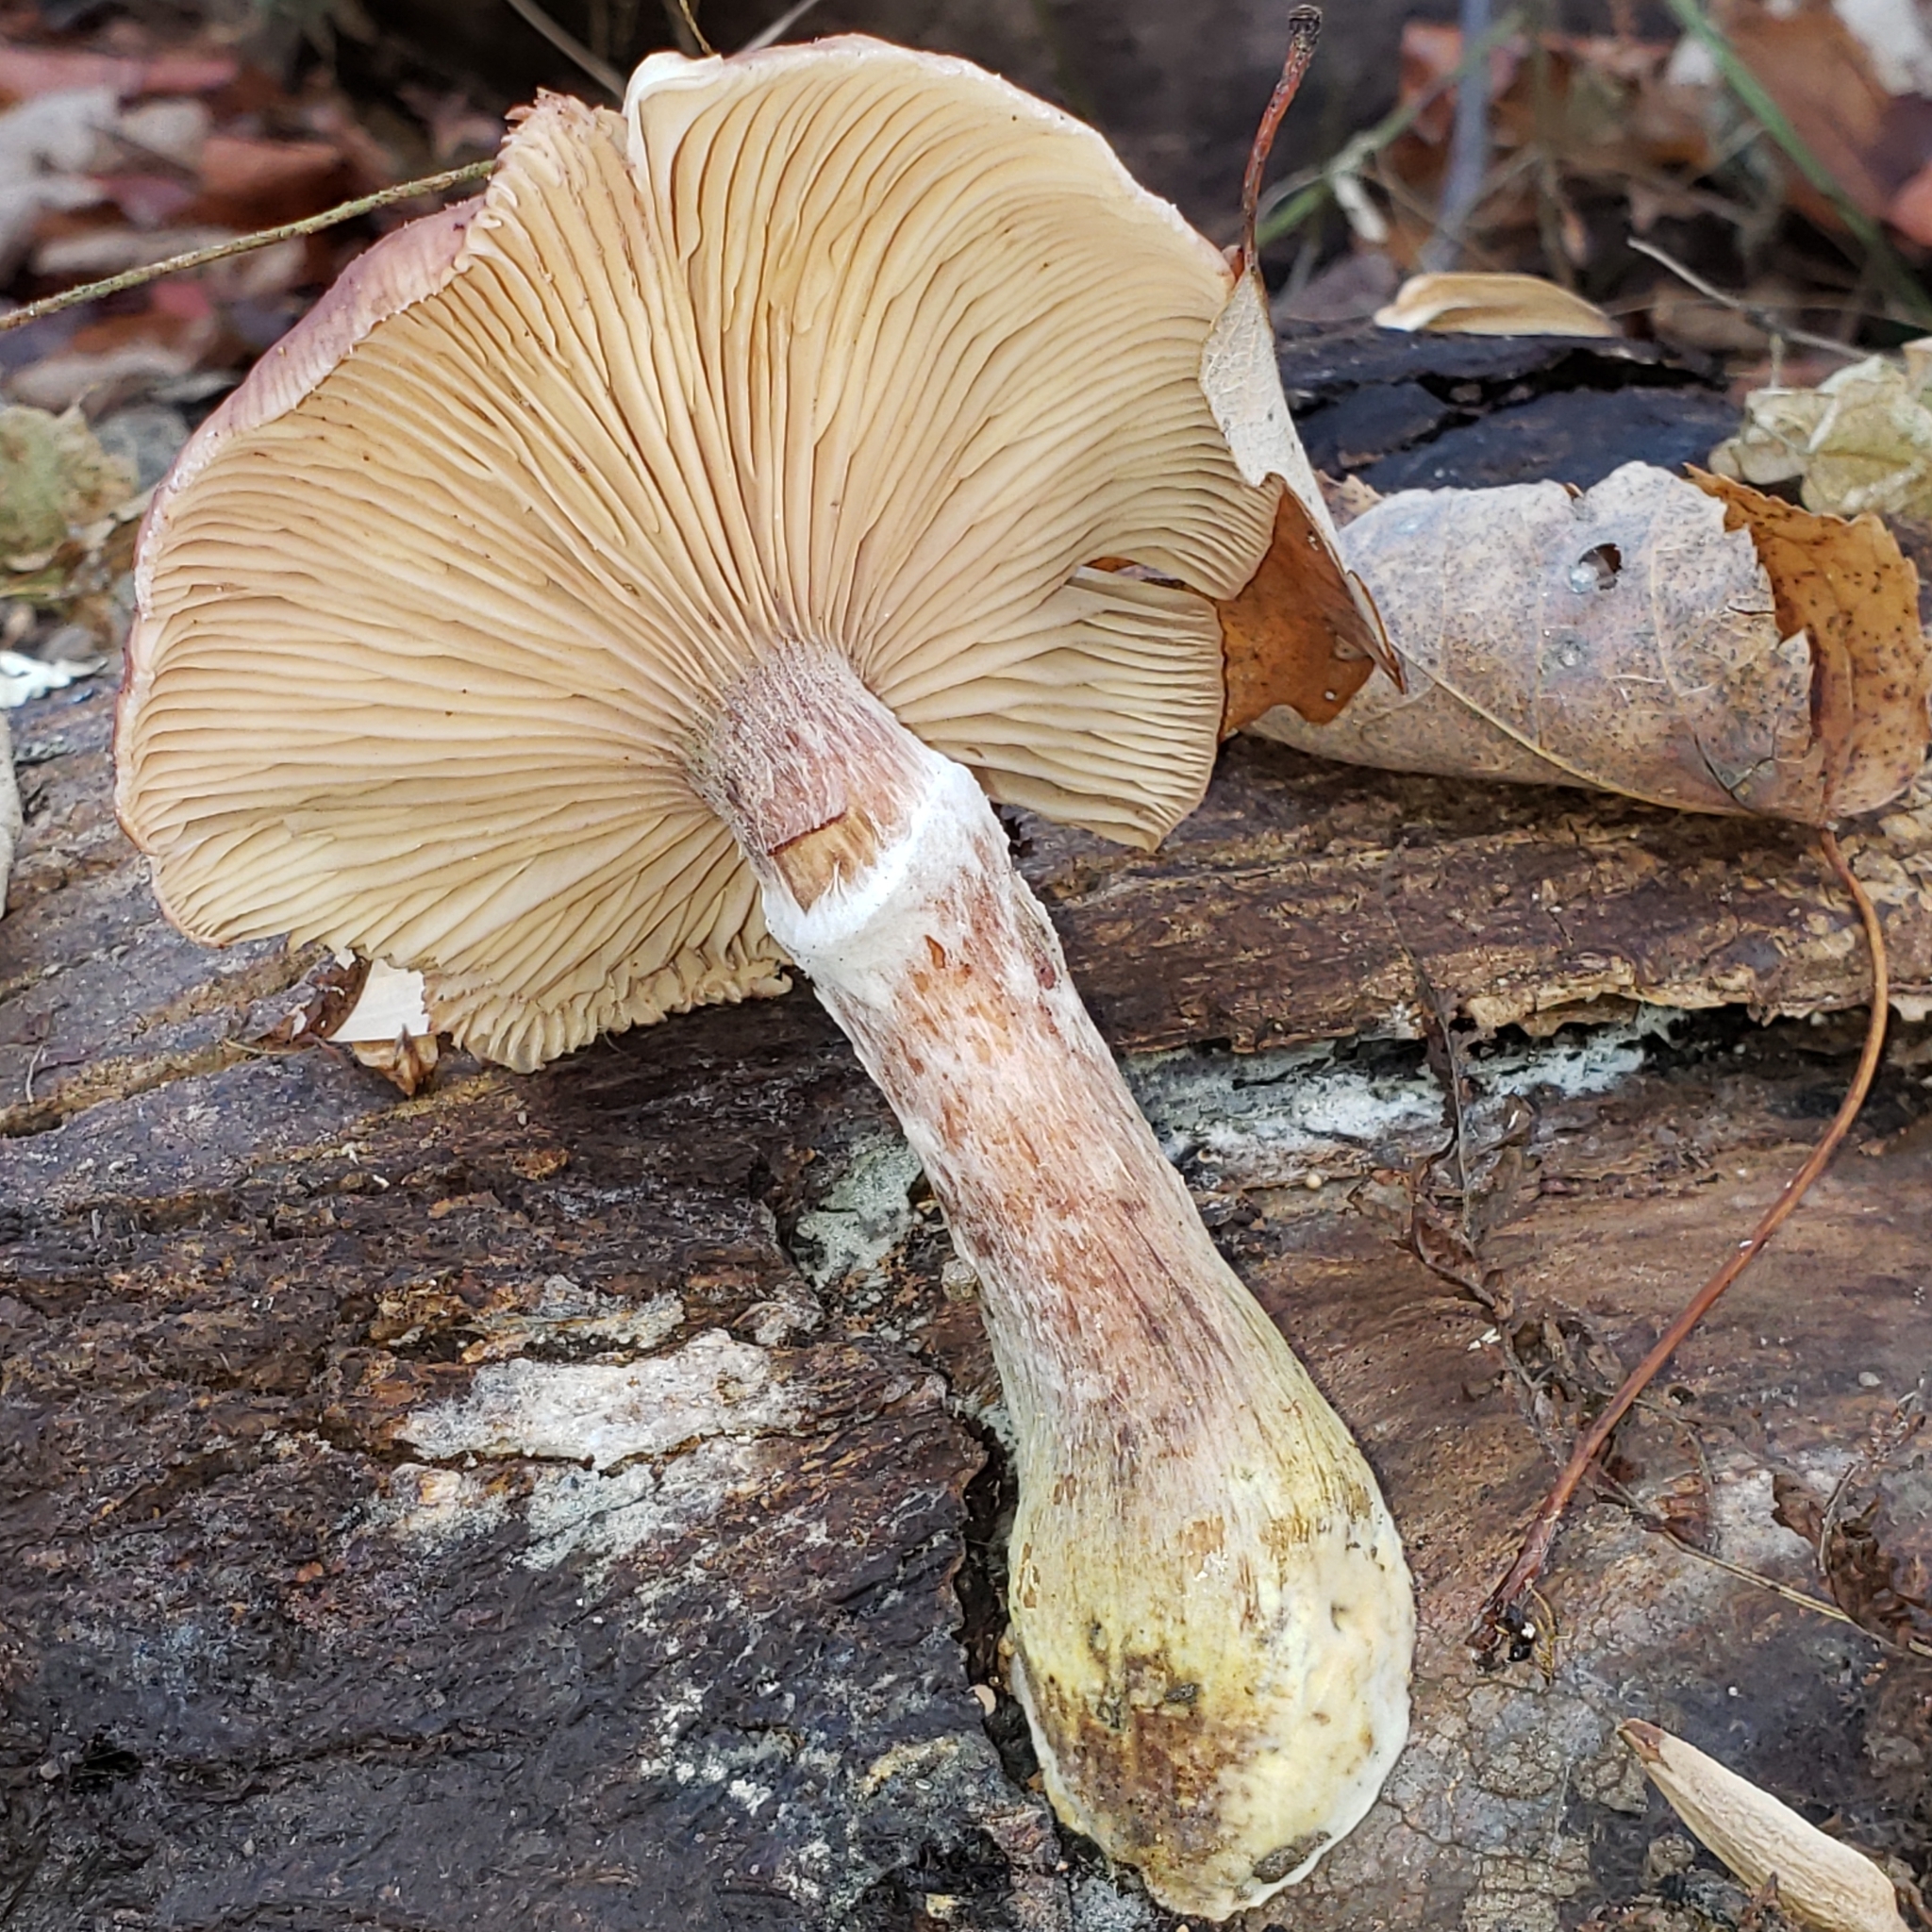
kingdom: Fungi
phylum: Basidiomycota
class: Agaricomycetes
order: Agaricales
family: Physalacriaceae
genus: Armillaria
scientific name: Armillaria sinapina
